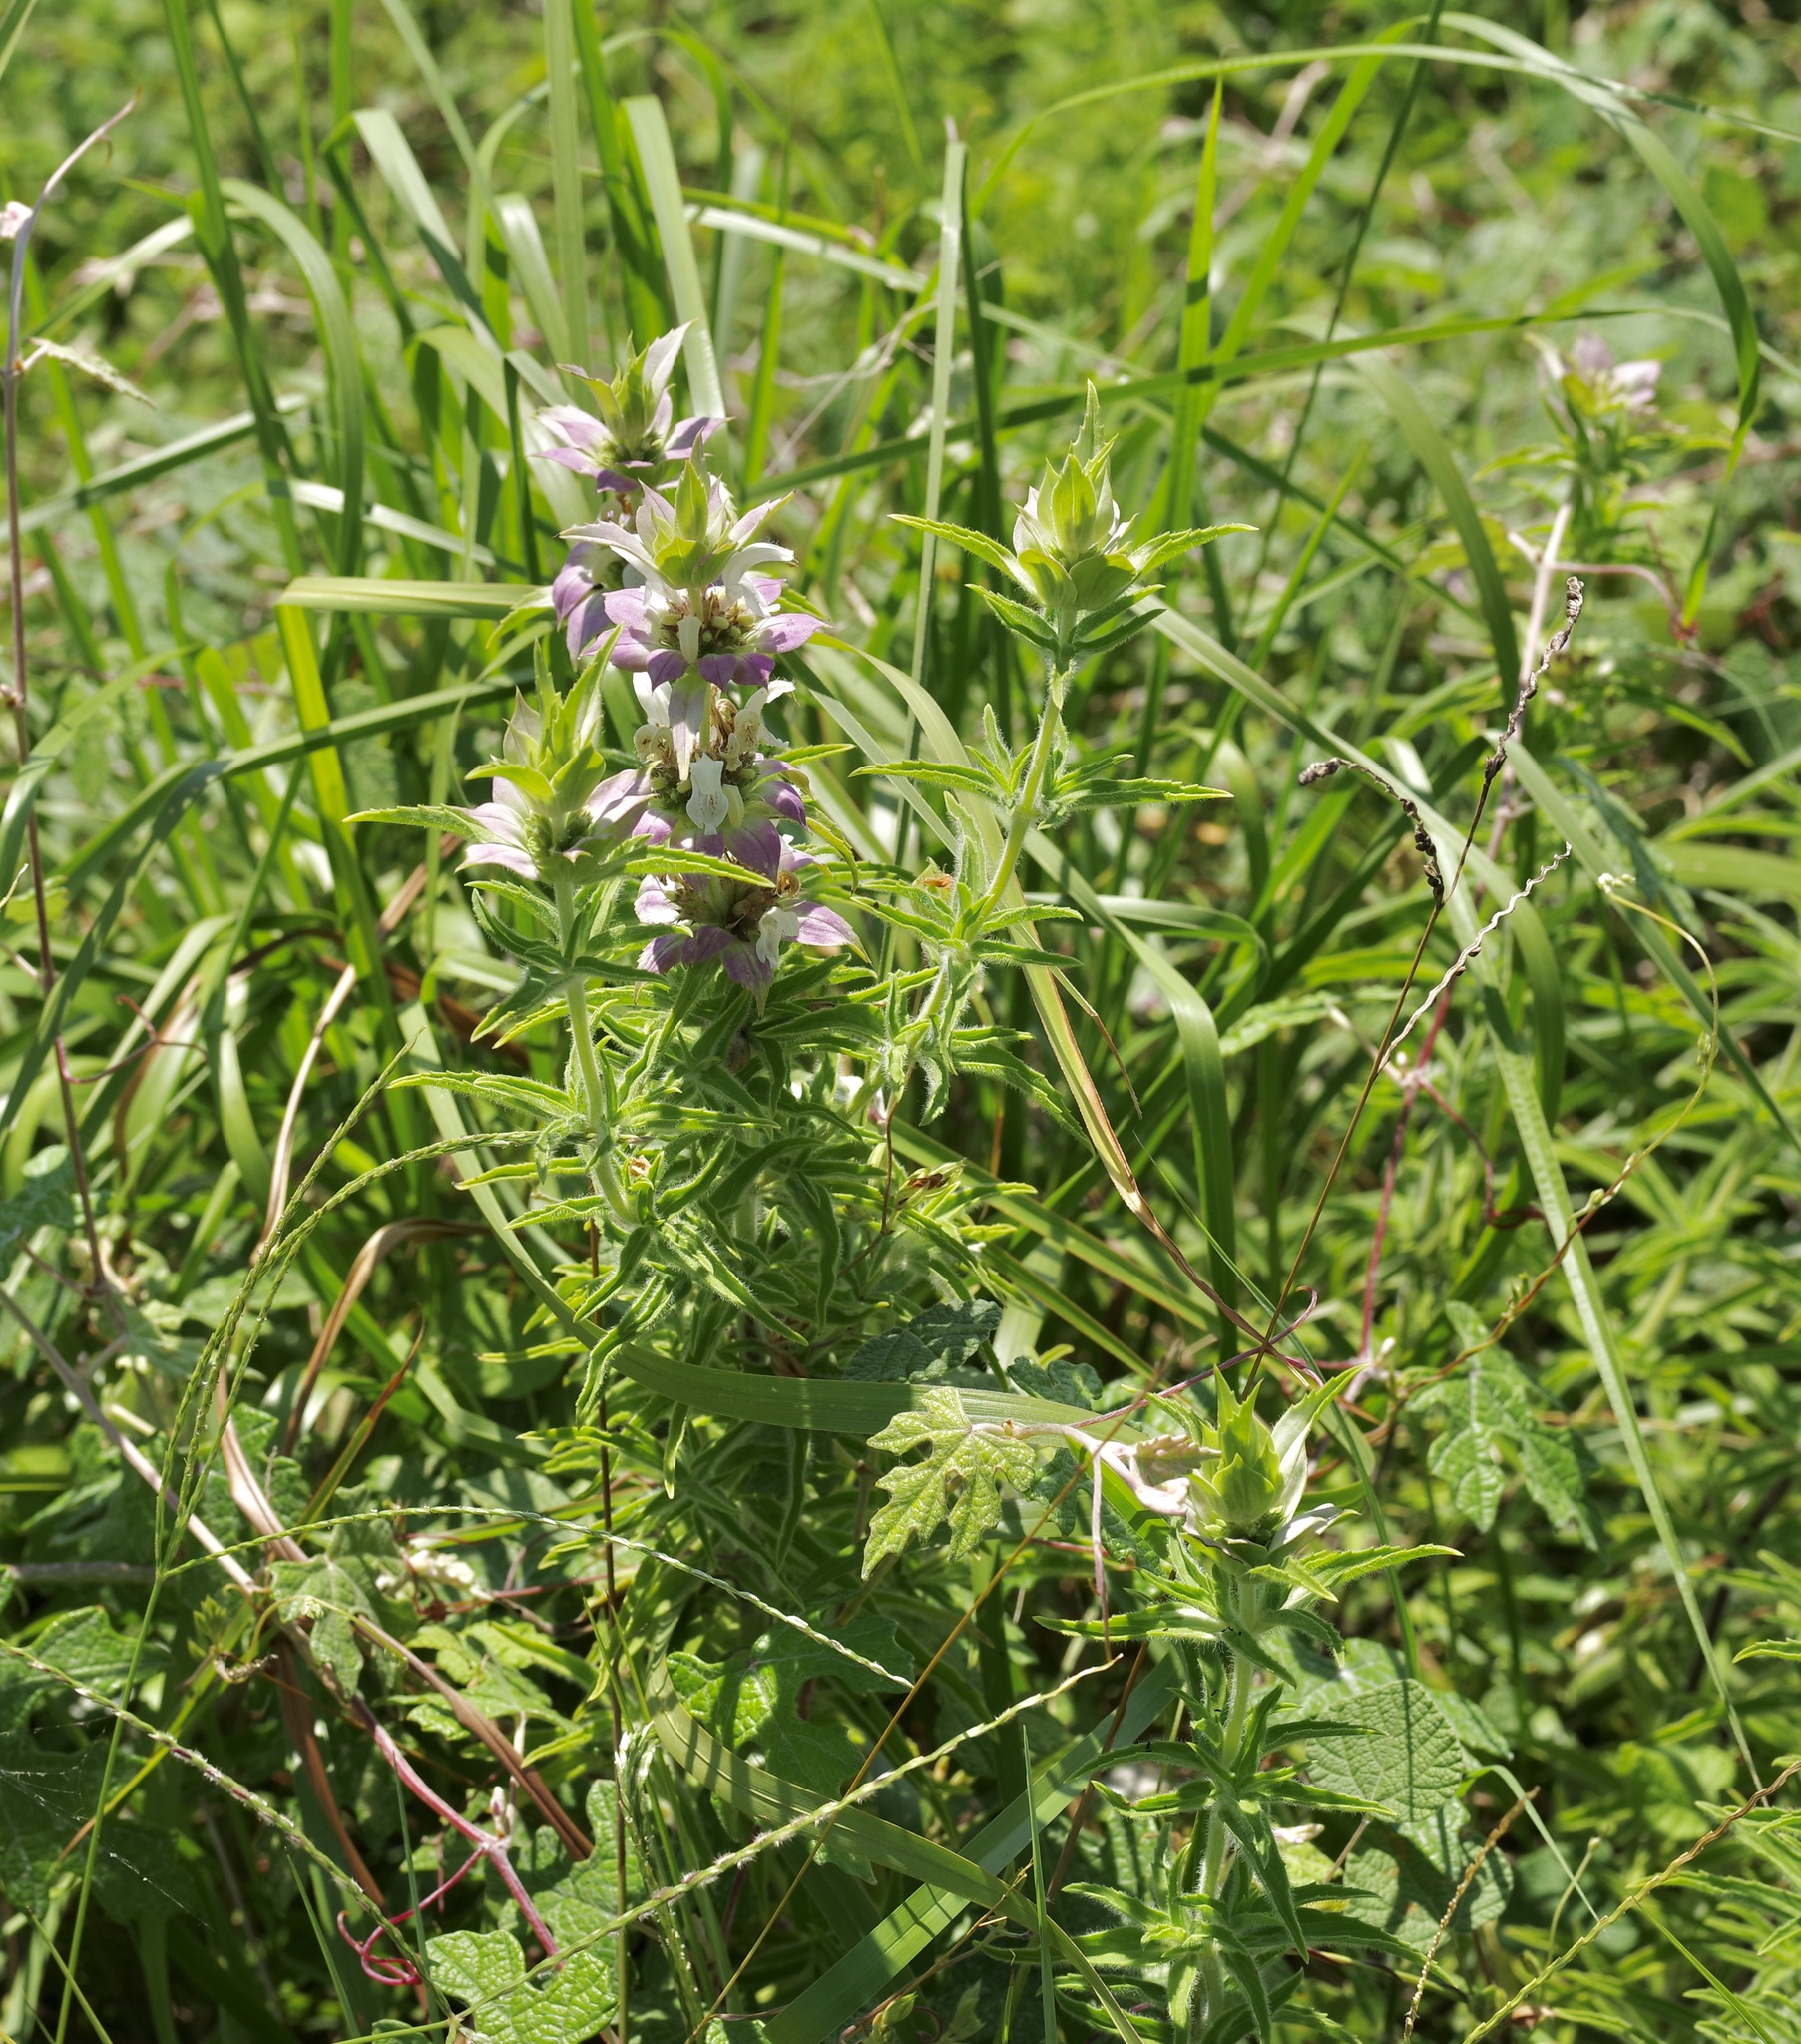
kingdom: Plantae
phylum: Tracheophyta
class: Magnoliopsida
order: Lamiales
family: Lamiaceae
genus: Monarda
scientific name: Monarda citriodora
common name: Lemon beebalm
